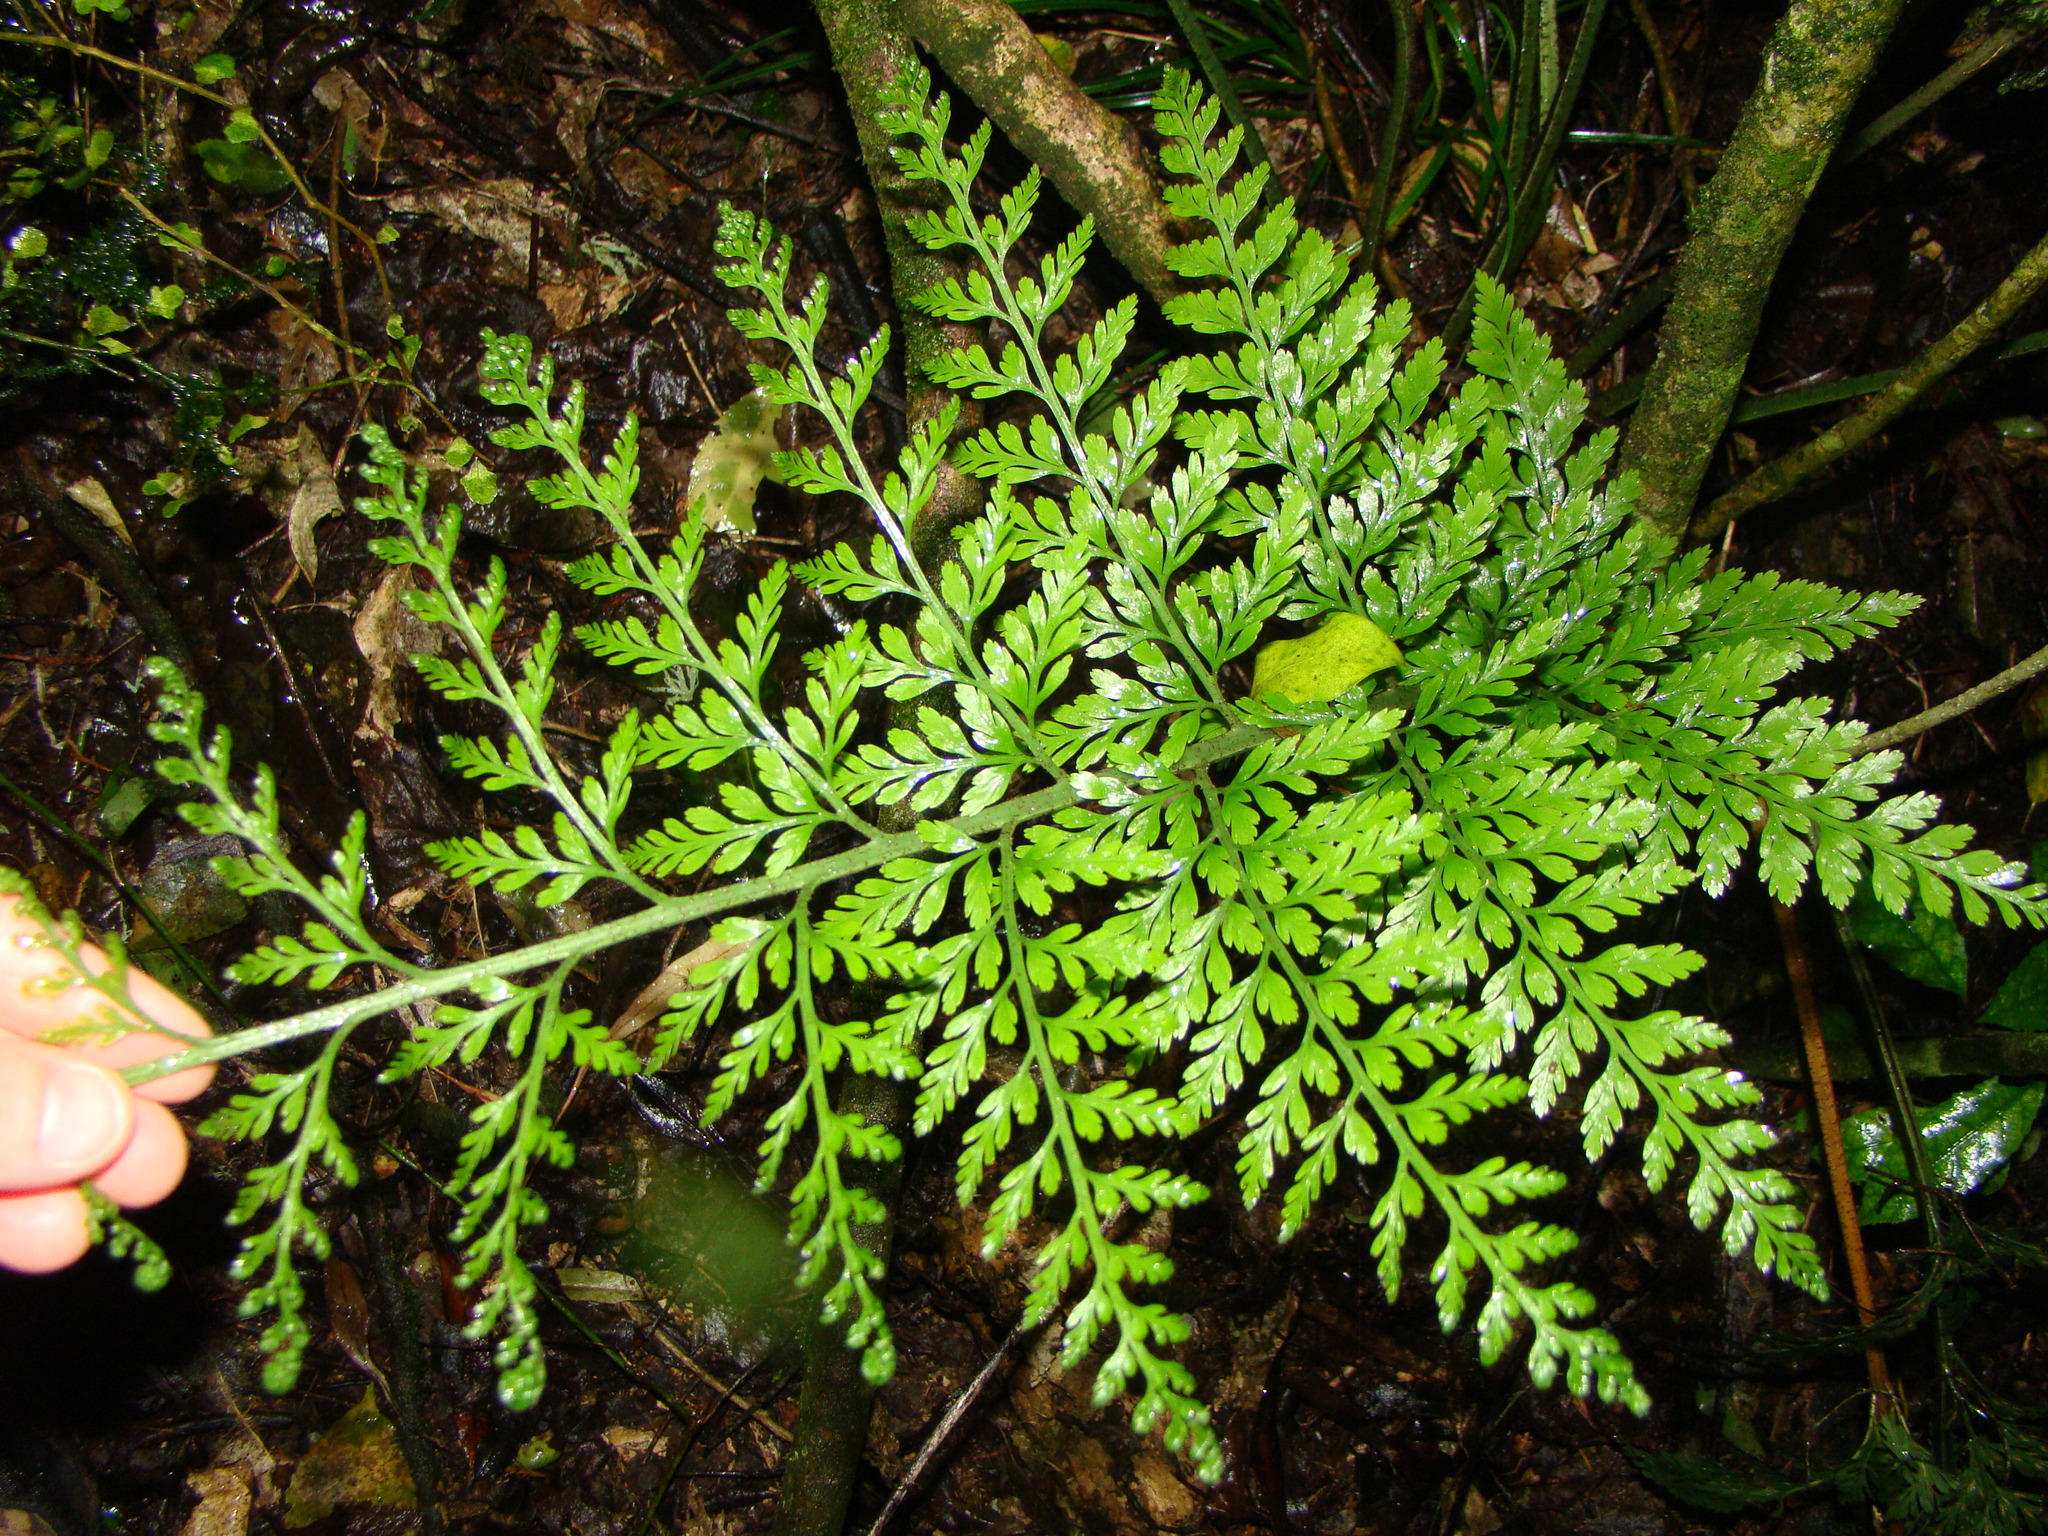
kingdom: Plantae
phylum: Tracheophyta
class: Polypodiopsida
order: Polypodiales
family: Aspleniaceae
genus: Asplenium
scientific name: Asplenium
